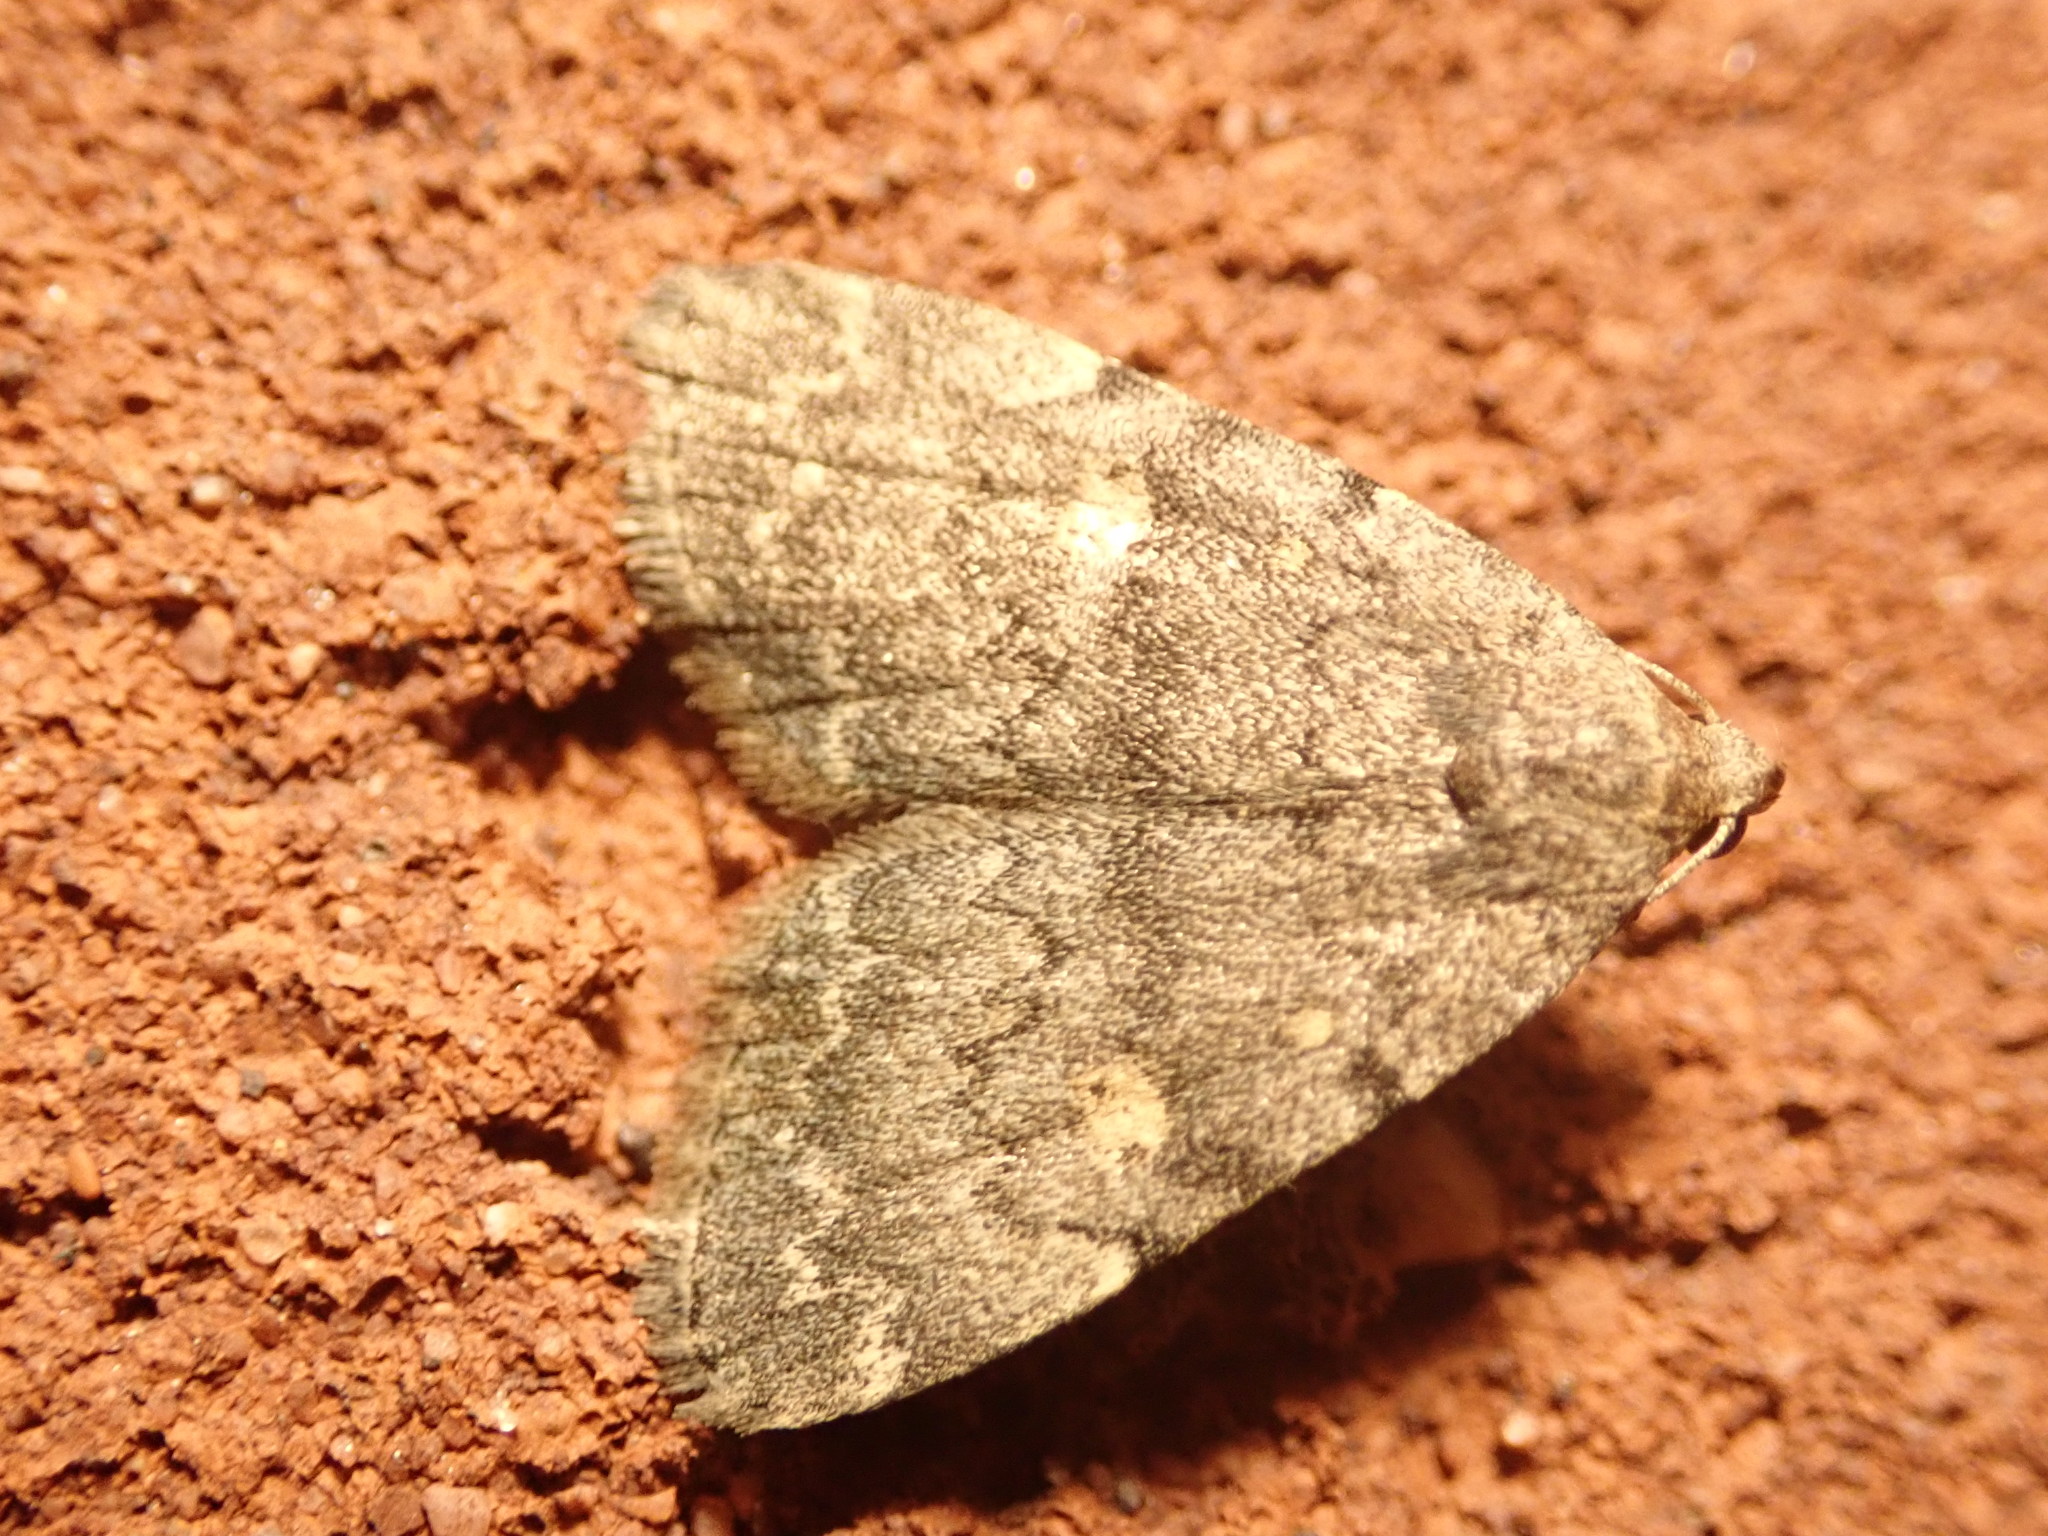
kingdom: Animalia
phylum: Arthropoda
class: Insecta
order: Lepidoptera
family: Erebidae
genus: Idia
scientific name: Idia aemula
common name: Common idia moth
